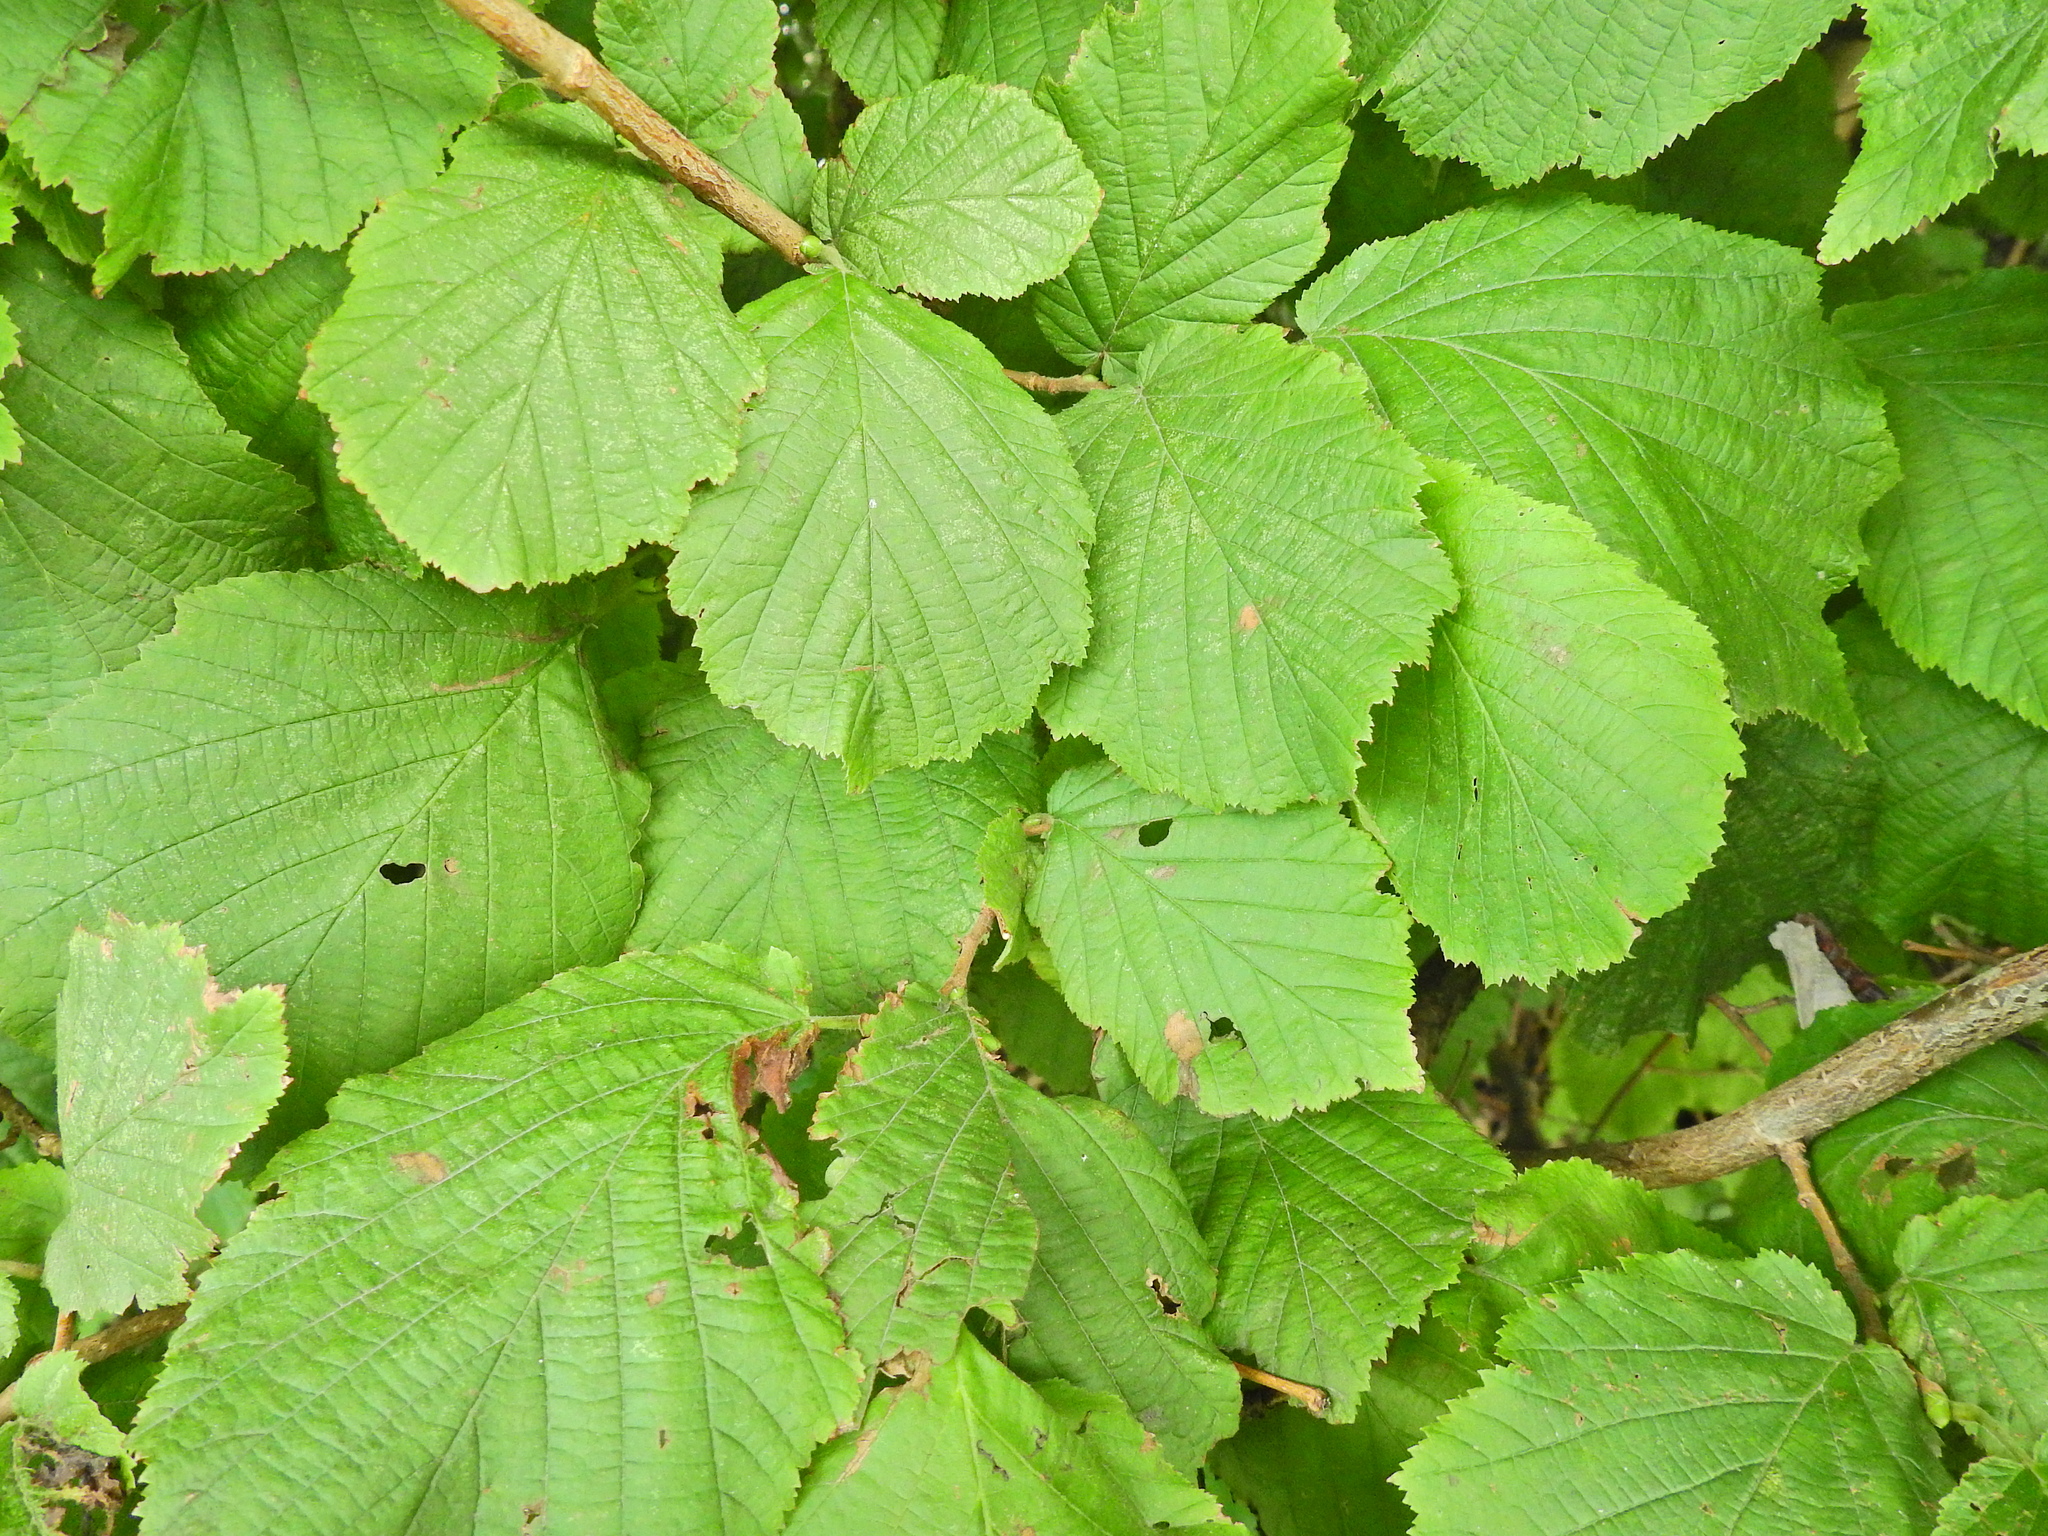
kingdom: Plantae
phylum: Tracheophyta
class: Magnoliopsida
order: Fagales
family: Betulaceae
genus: Corylus
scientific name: Corylus avellana
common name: European hazel
